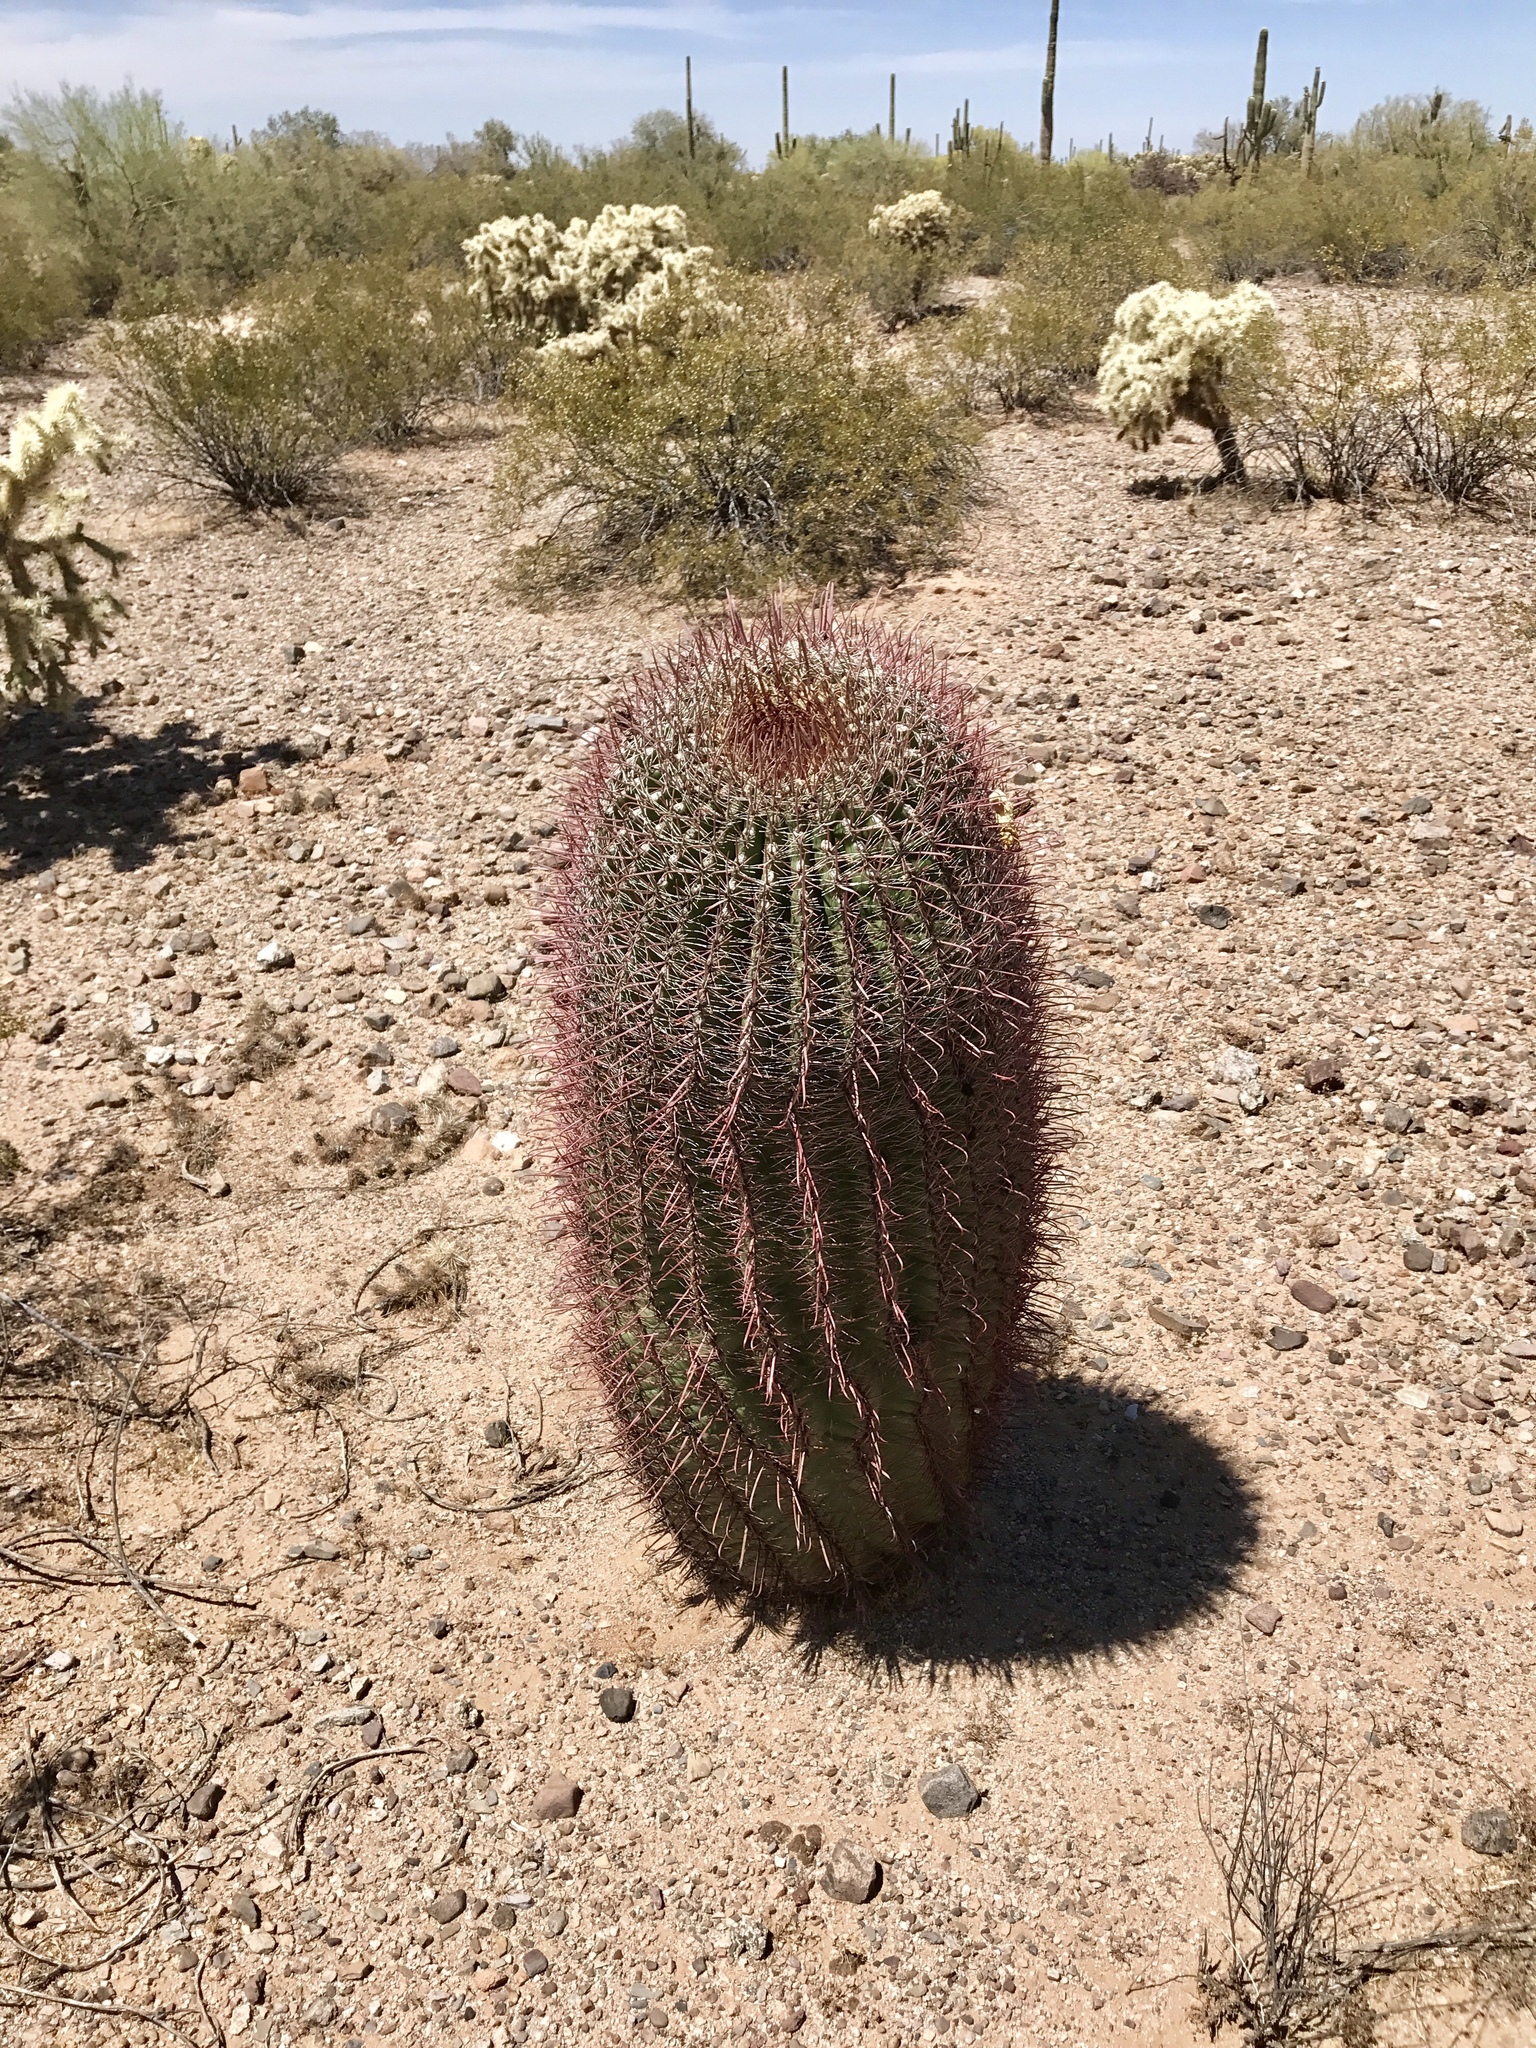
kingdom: Plantae
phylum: Tracheophyta
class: Magnoliopsida
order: Caryophyllales
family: Cactaceae
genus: Ferocactus
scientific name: Ferocactus wislizeni
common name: Candy barrel cactus
